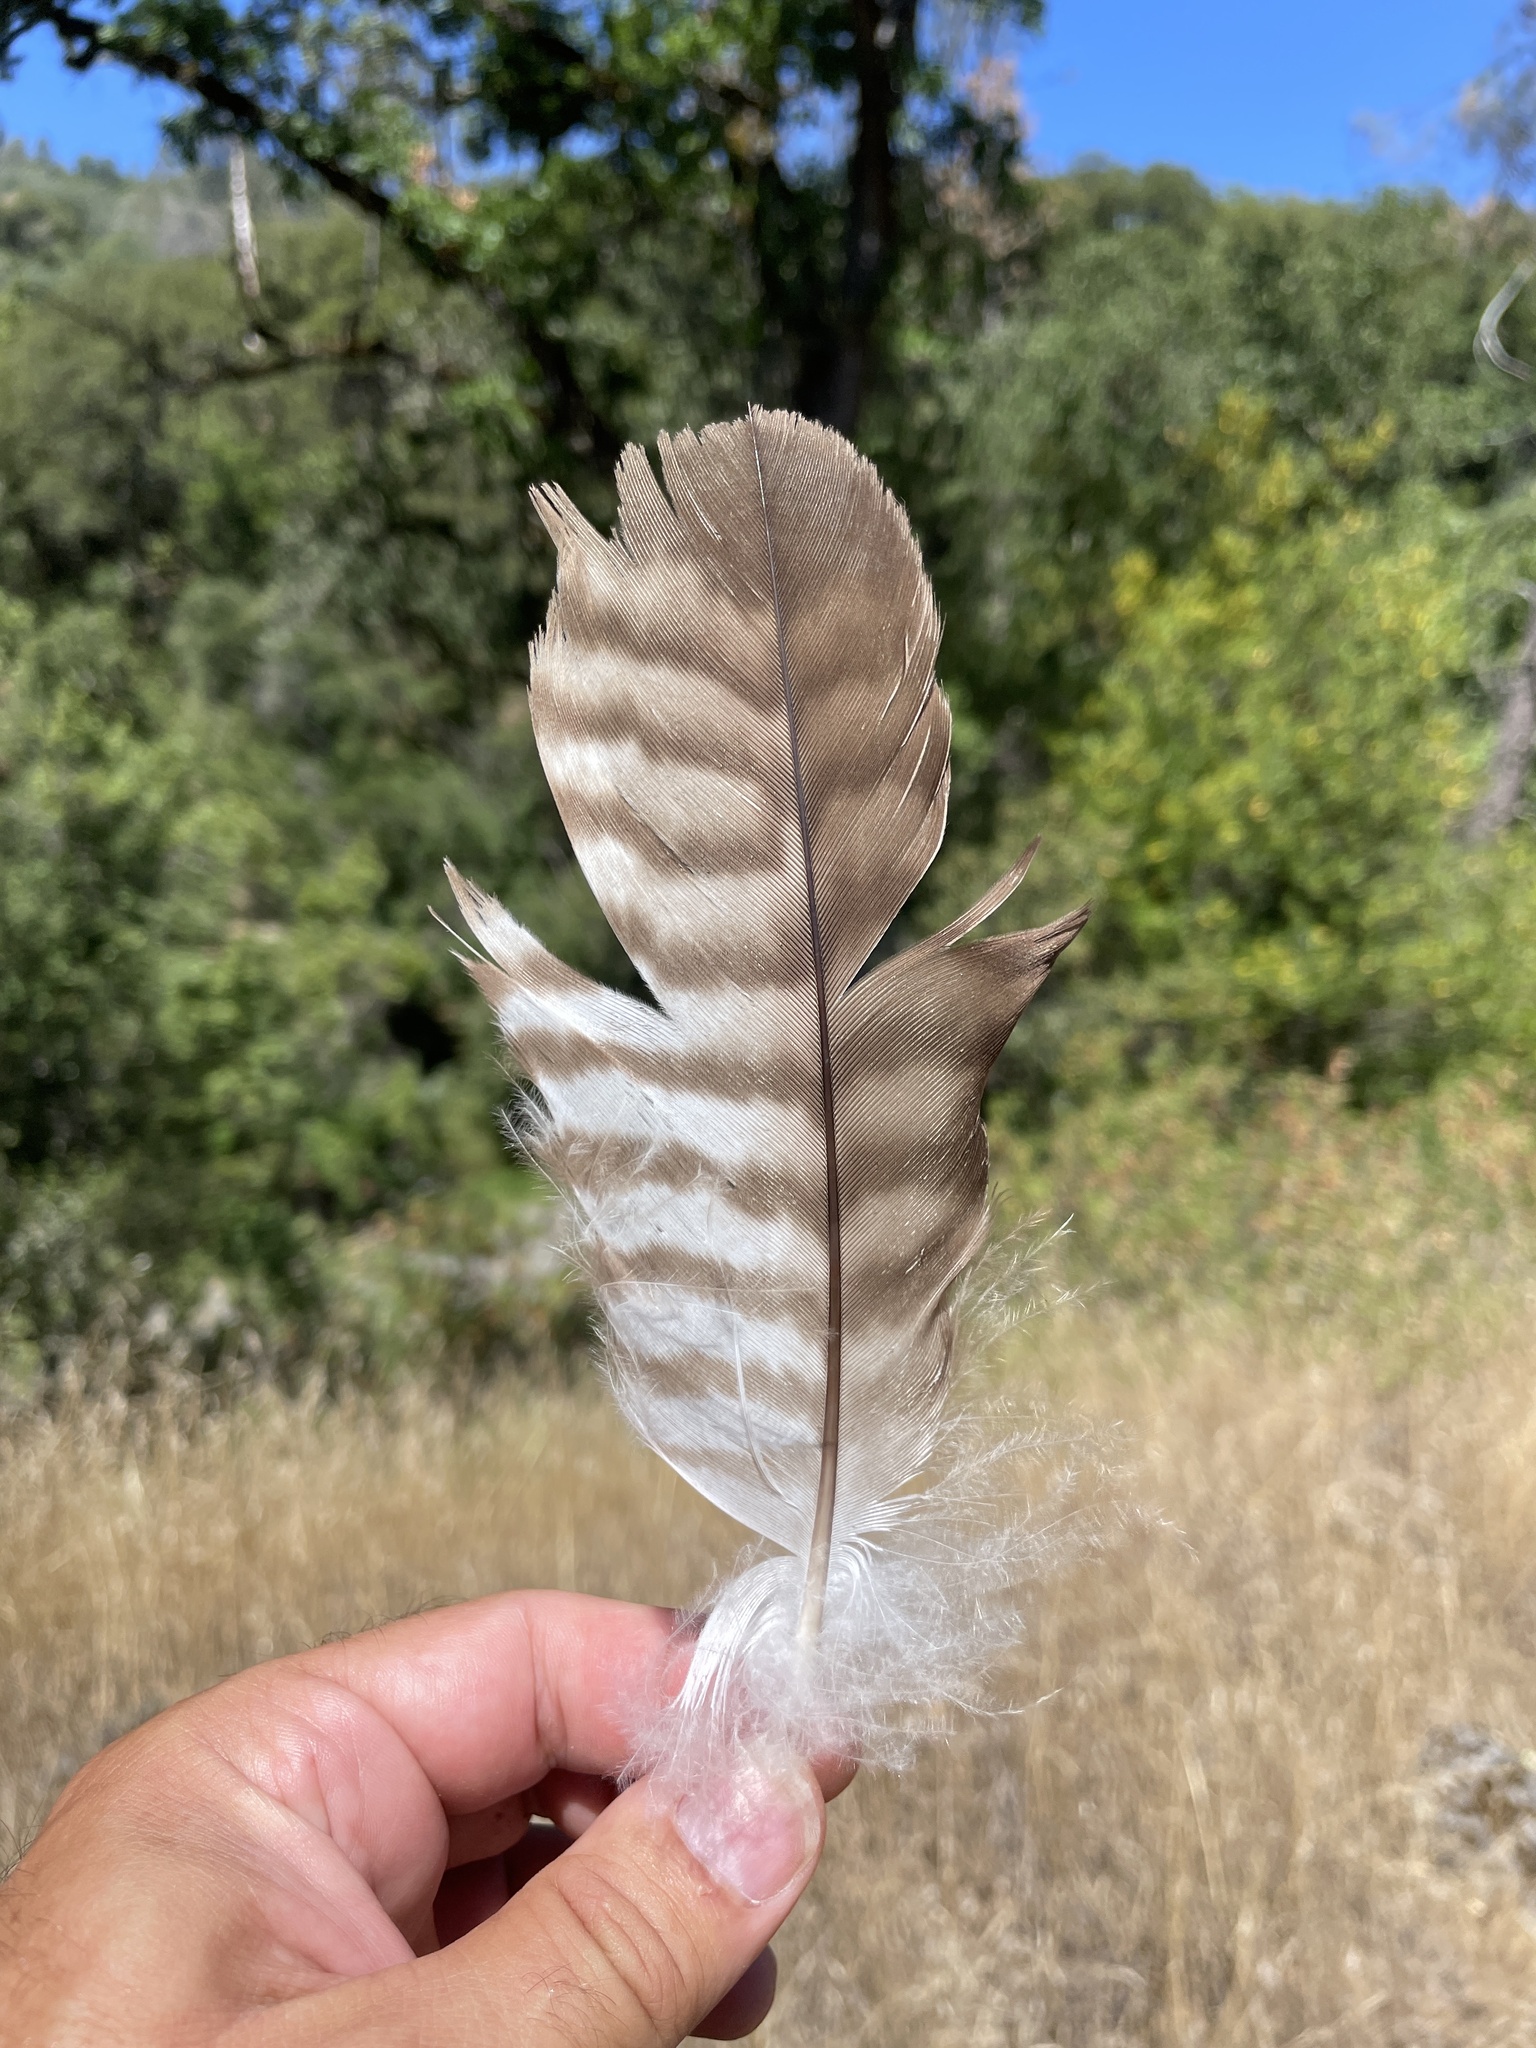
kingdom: Animalia
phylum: Chordata
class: Aves
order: Accipitriformes
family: Accipitridae
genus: Buteo
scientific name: Buteo jamaicensis
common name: Red-tailed hawk
